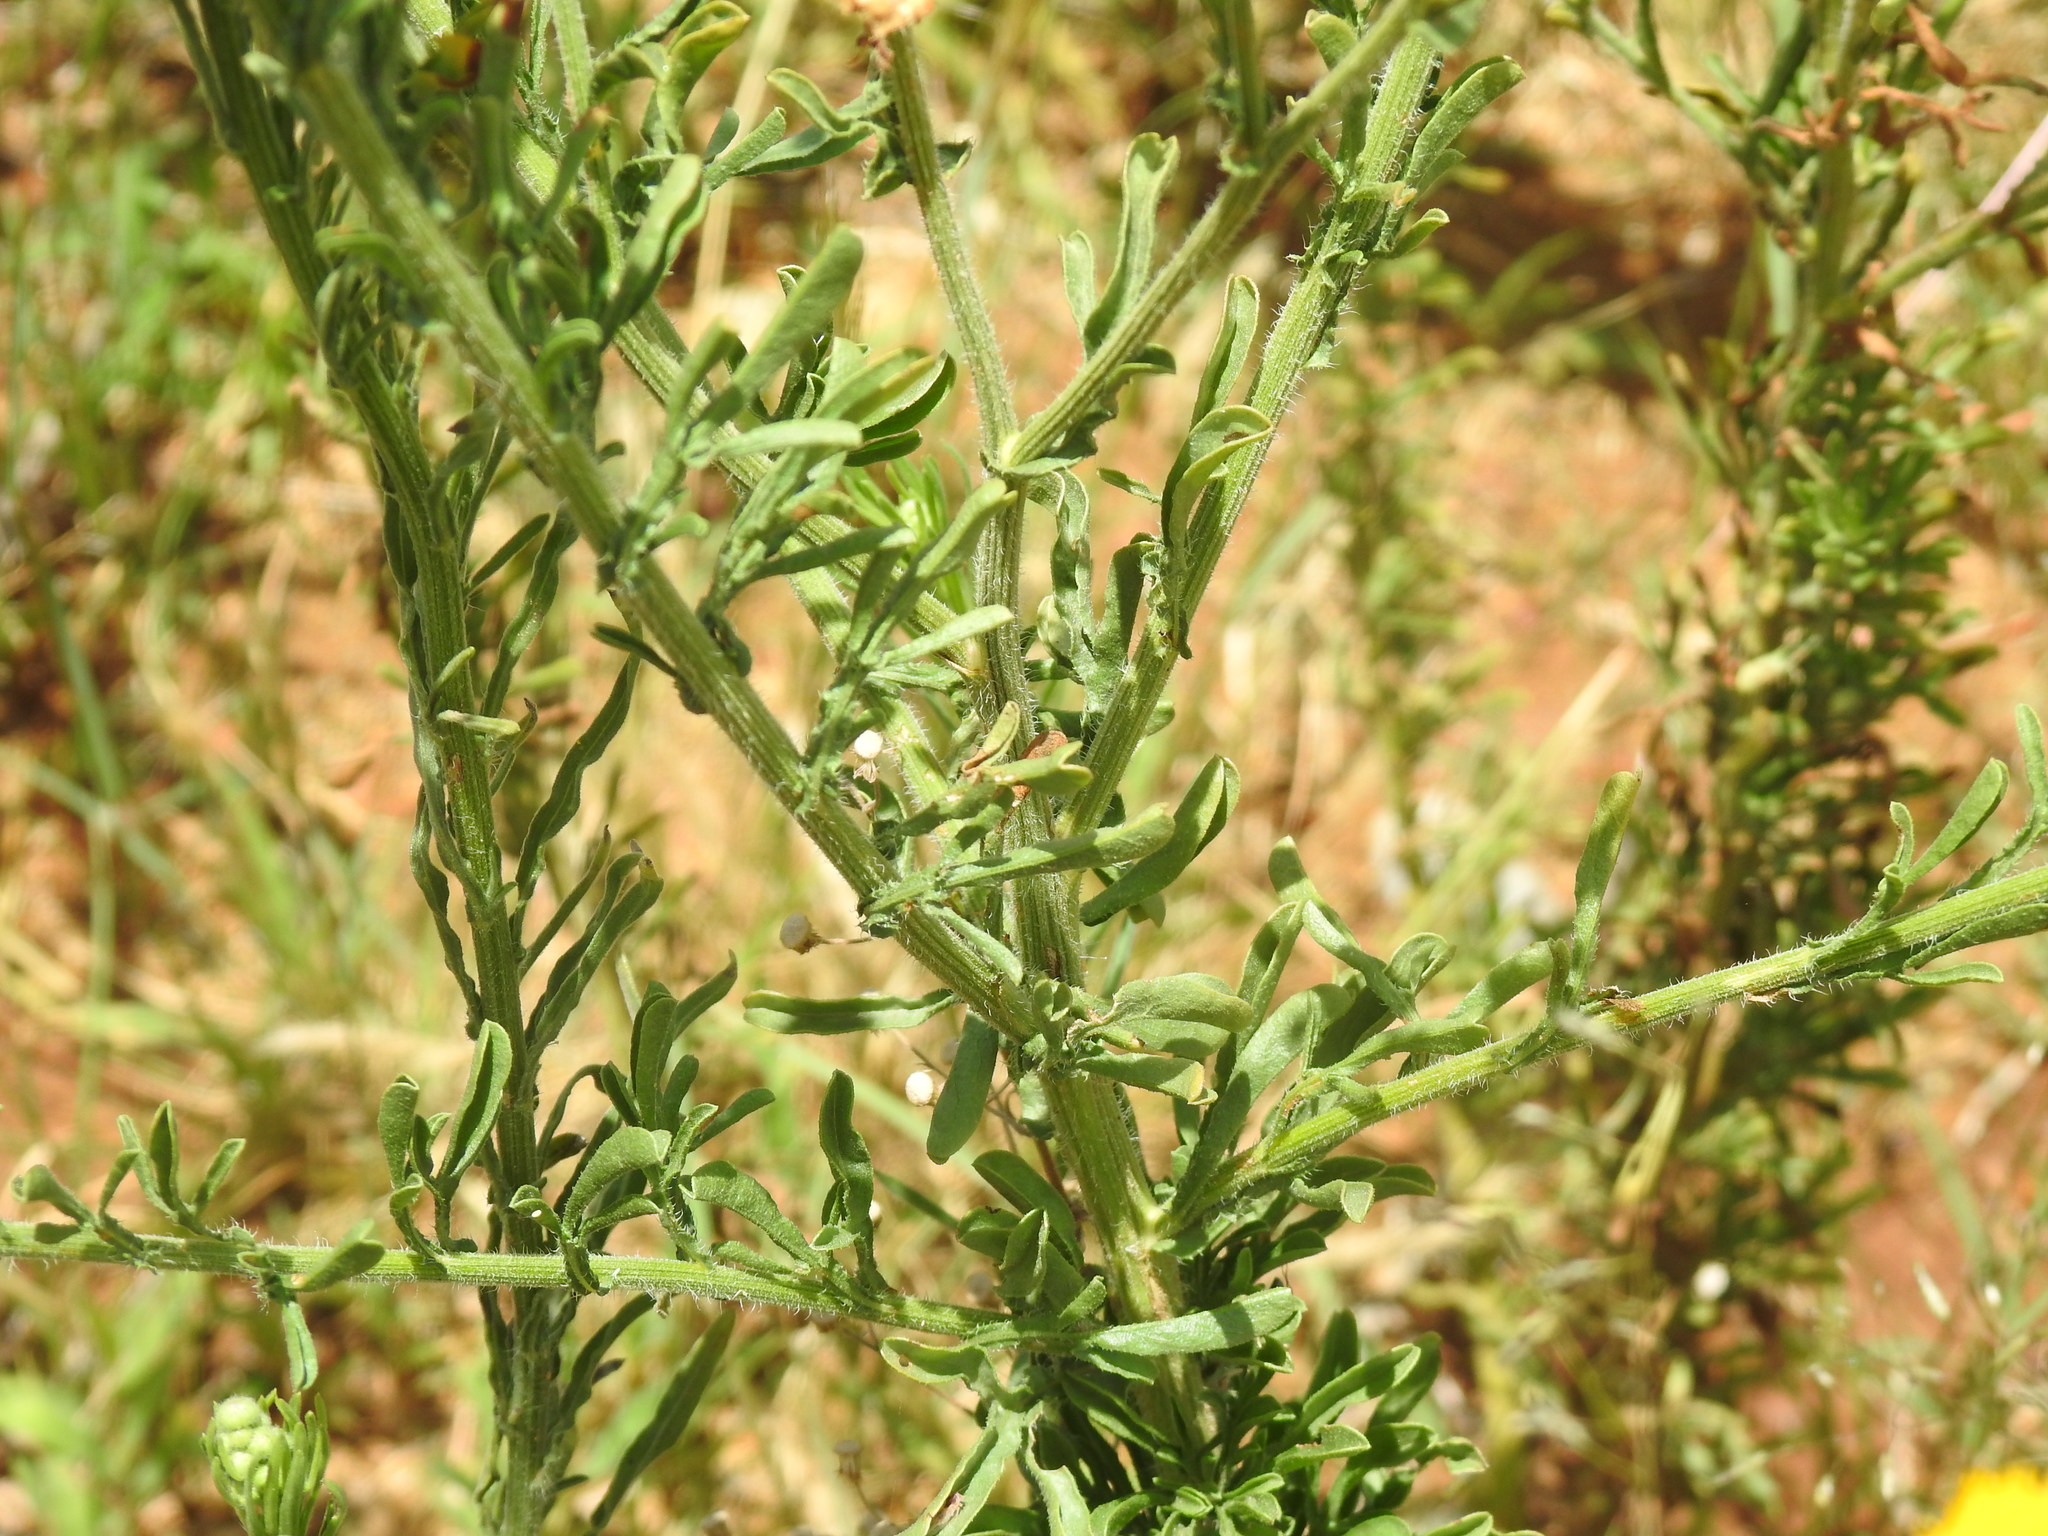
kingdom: Plantae
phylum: Tracheophyta
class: Magnoliopsida
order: Asterales
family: Asteraceae
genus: Nidorella
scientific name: Nidorella hottentotica
